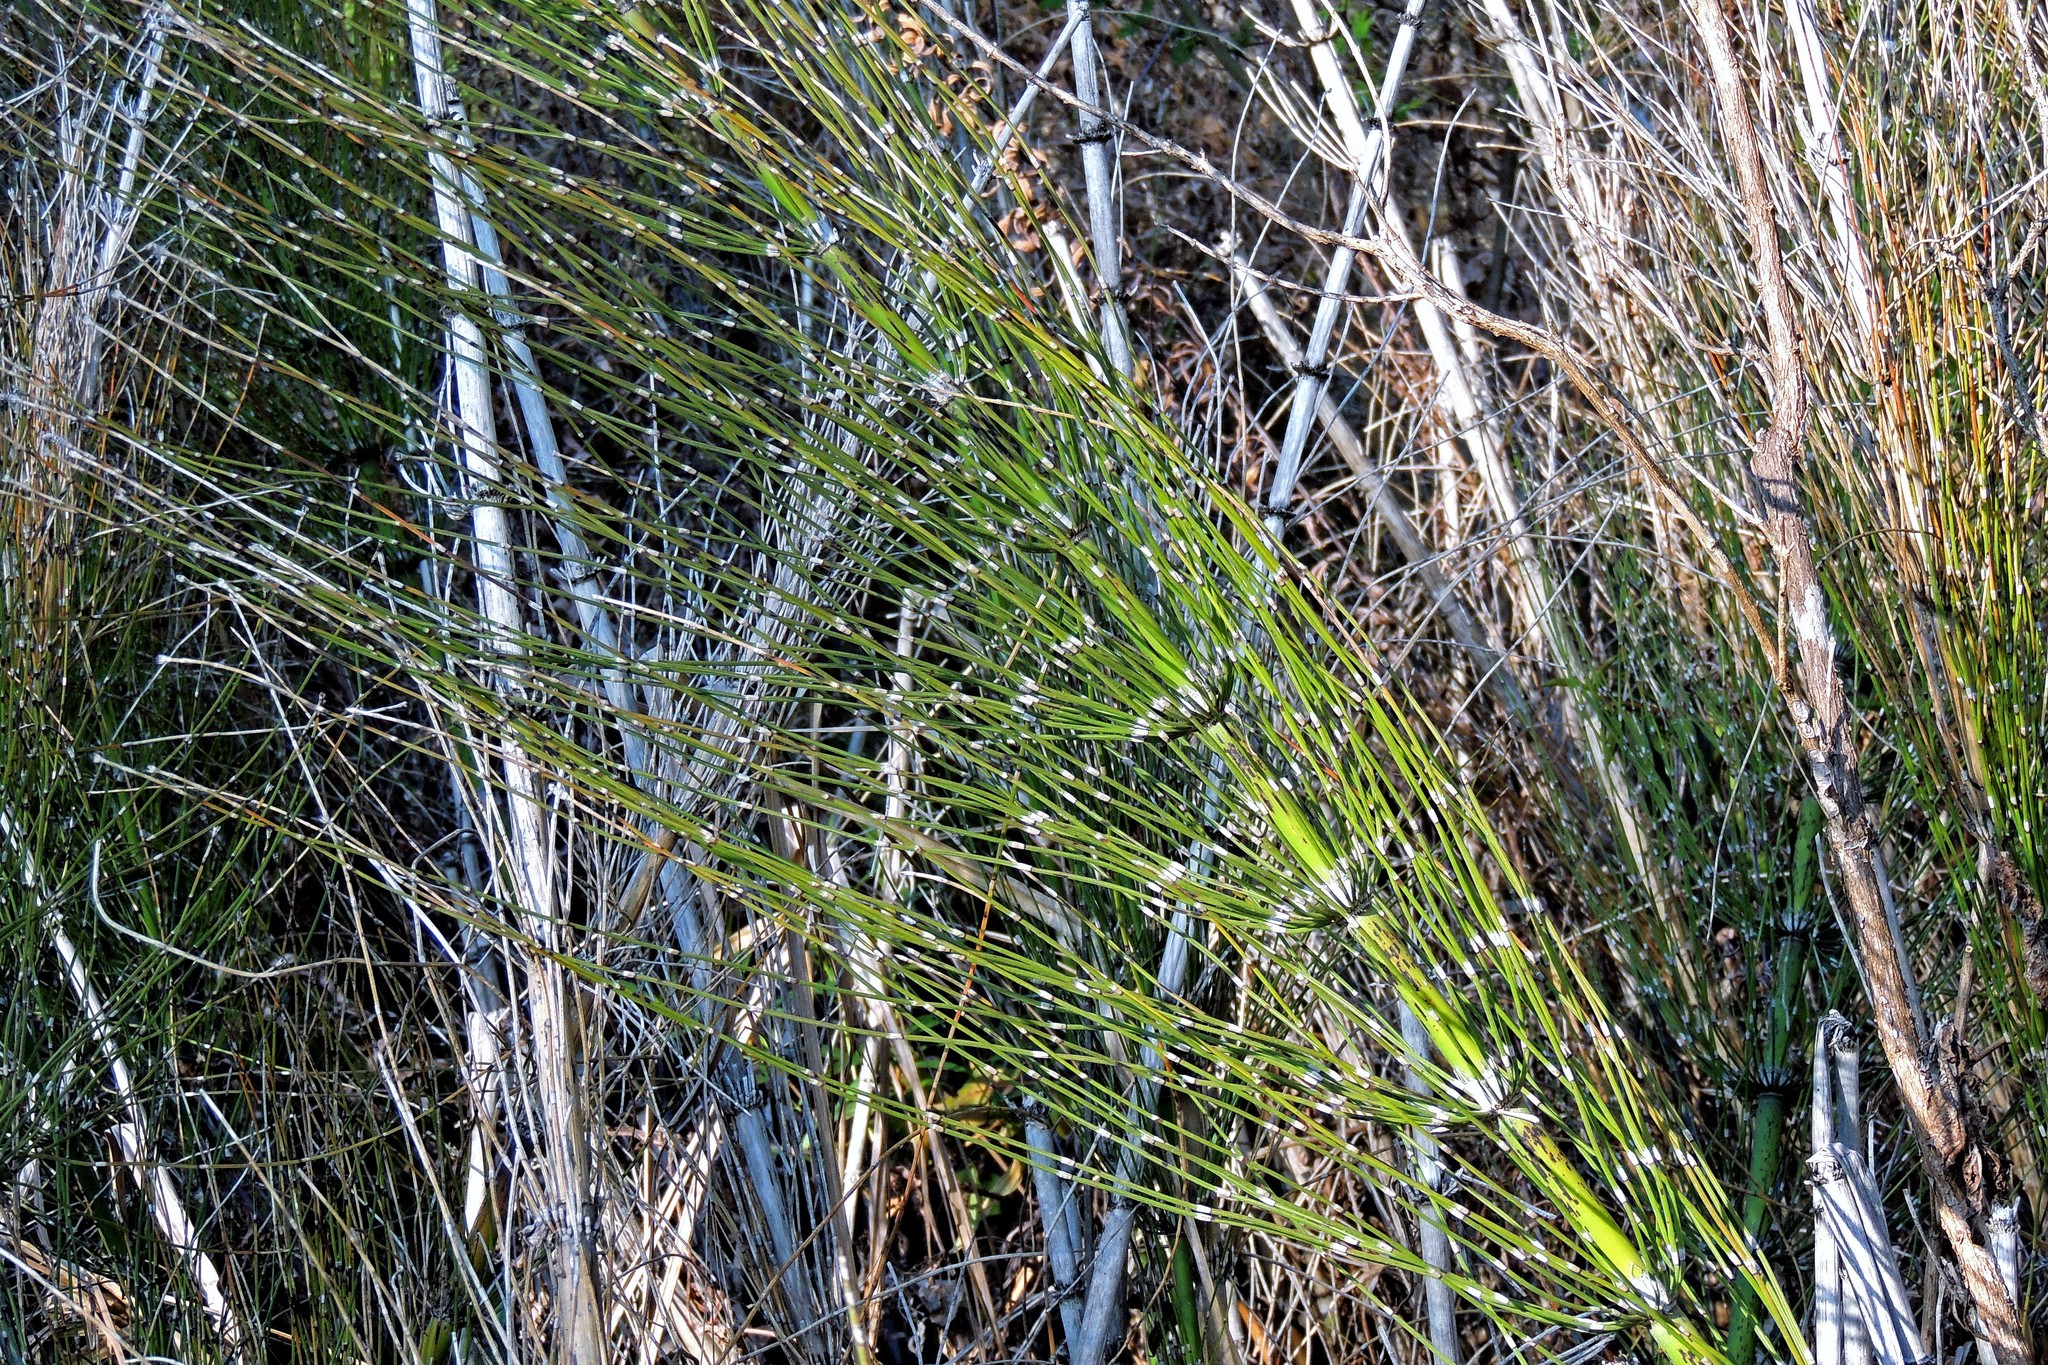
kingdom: Plantae
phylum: Tracheophyta
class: Polypodiopsida
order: Equisetales
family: Equisetaceae
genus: Equisetum
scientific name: Equisetum giganteum
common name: Giant horsetail
